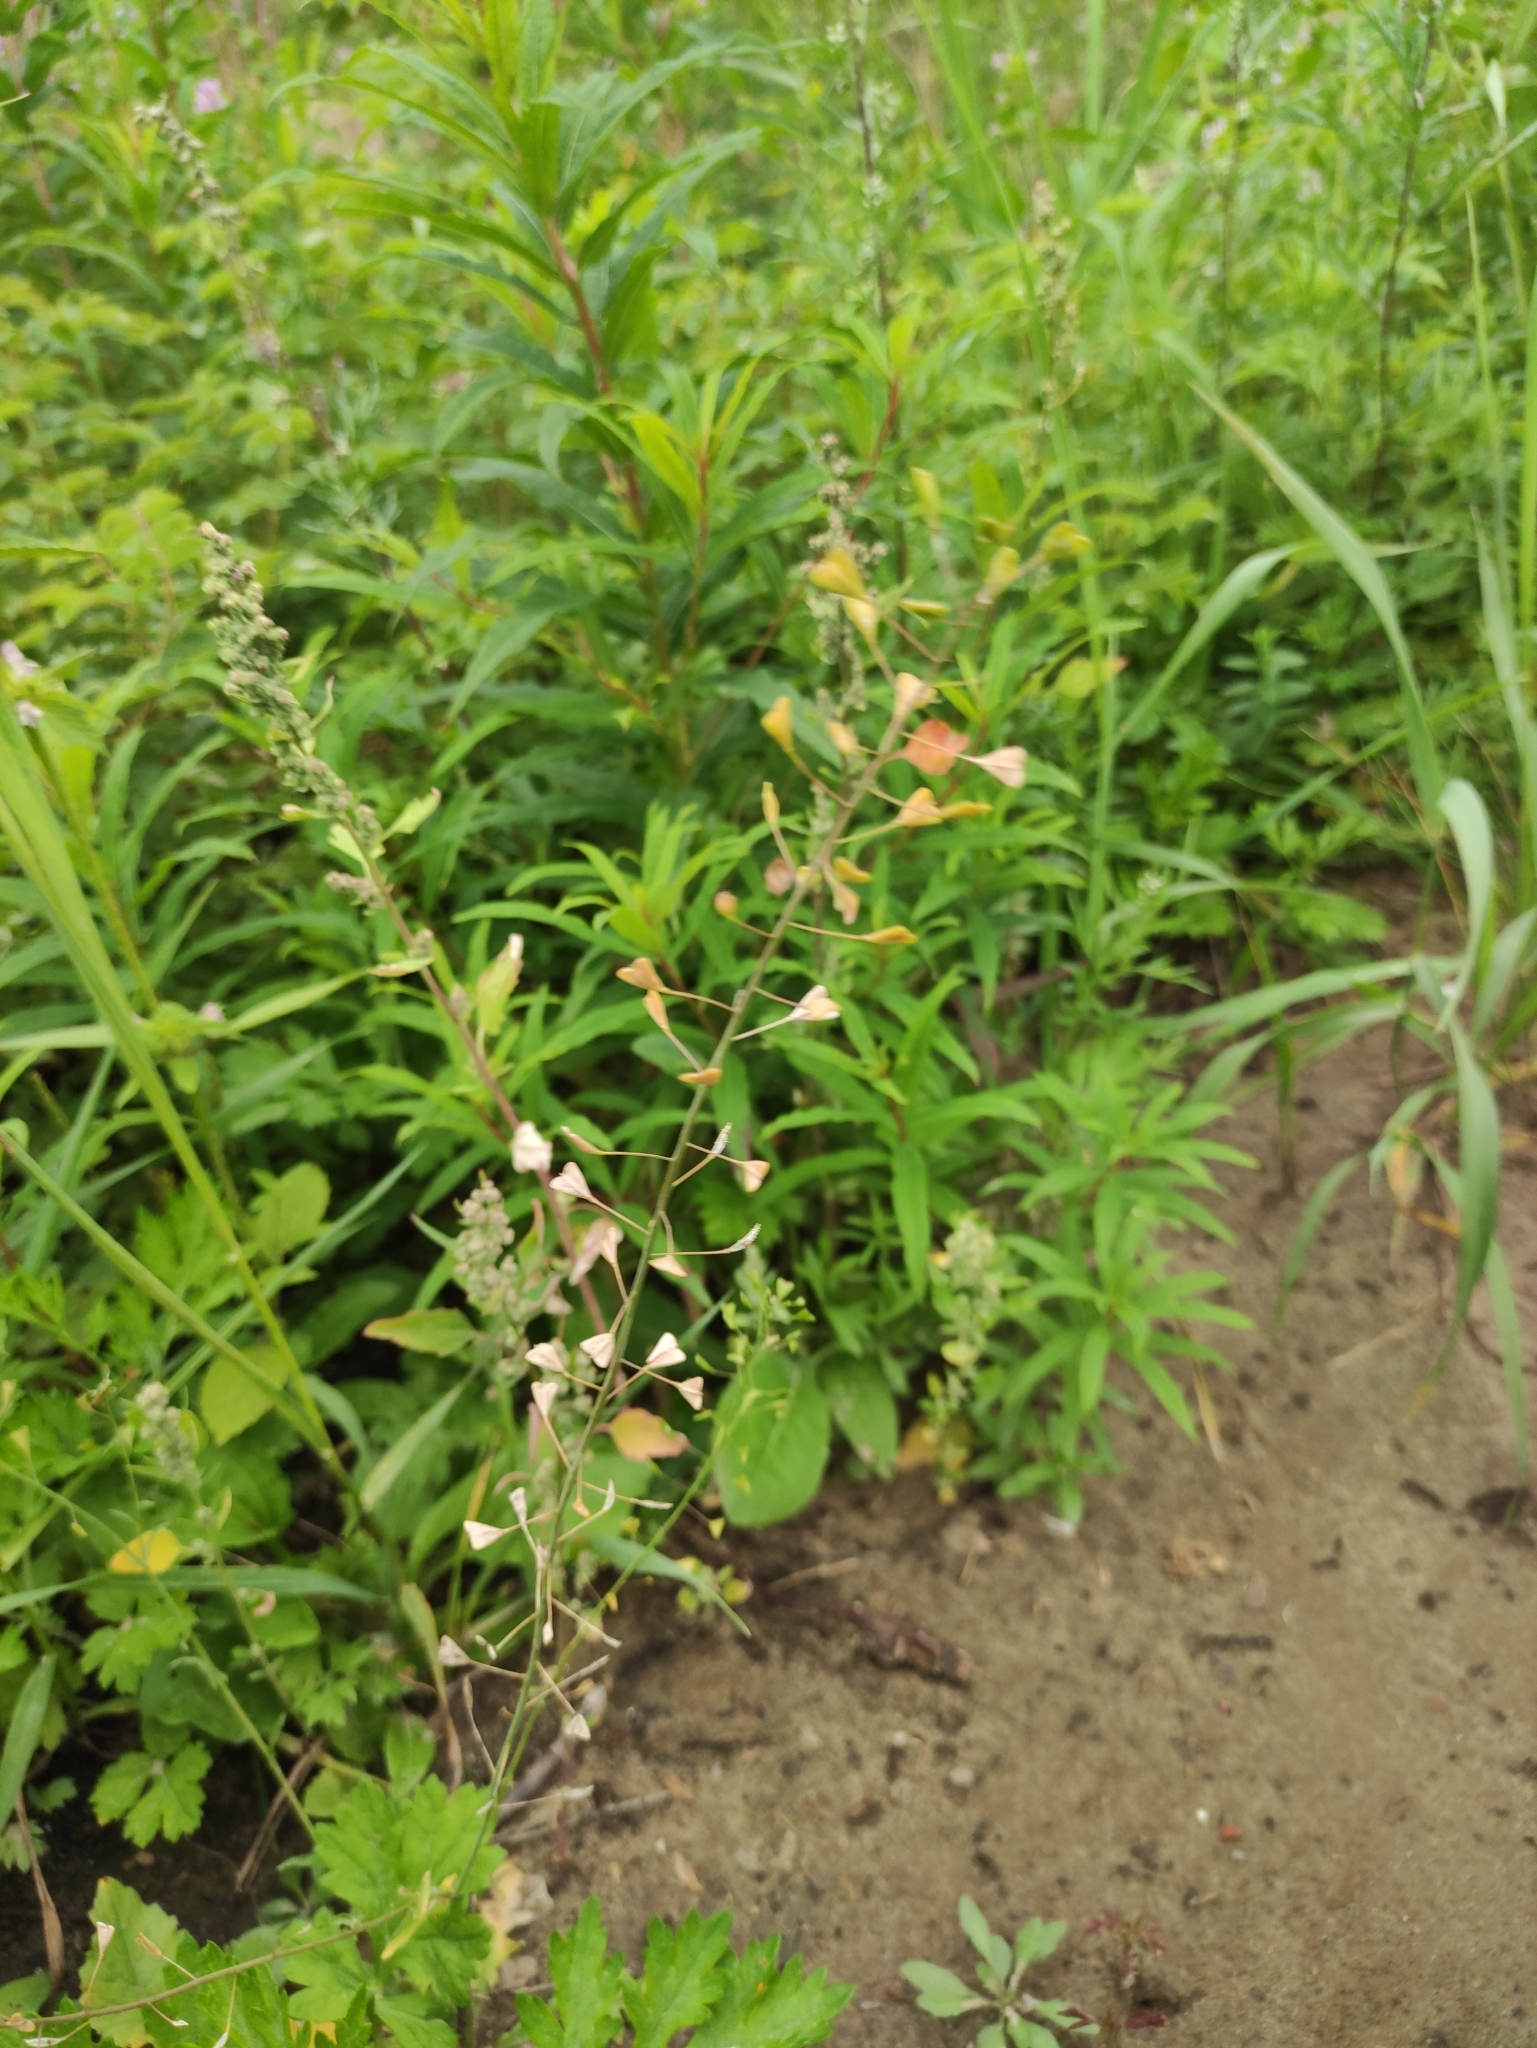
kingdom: Plantae
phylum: Tracheophyta
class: Magnoliopsida
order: Brassicales
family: Brassicaceae
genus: Capsella
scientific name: Capsella bursa-pastoris
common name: Shepherd's purse
